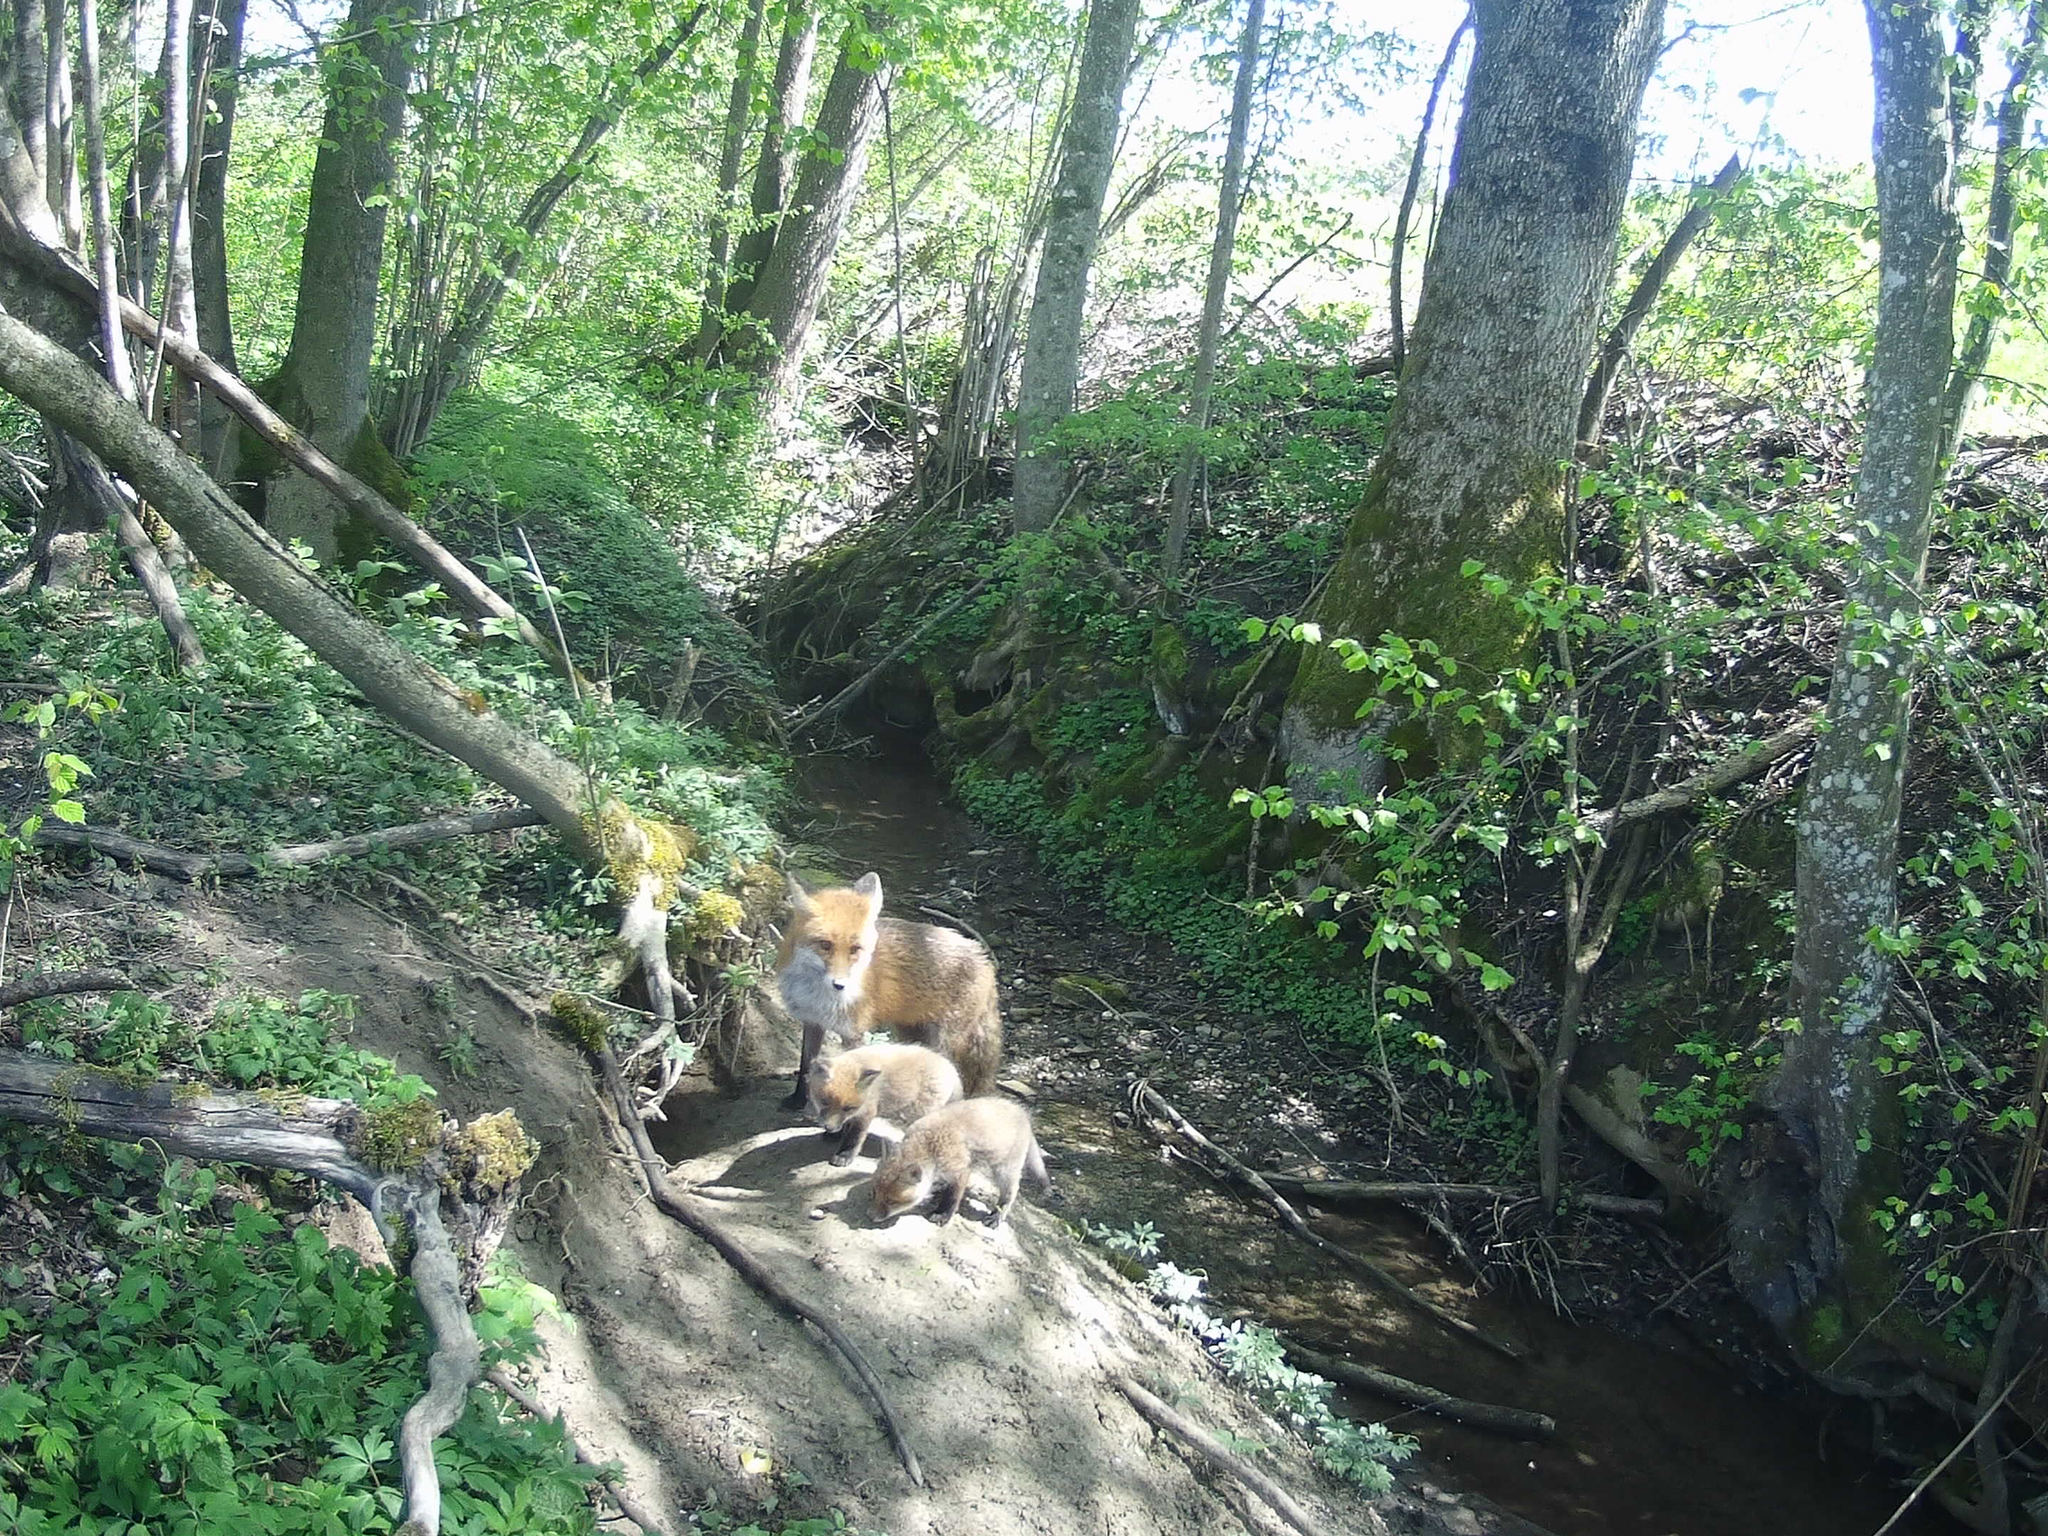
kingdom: Animalia
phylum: Chordata
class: Mammalia
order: Carnivora
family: Canidae
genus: Vulpes
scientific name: Vulpes vulpes
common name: Red fox
